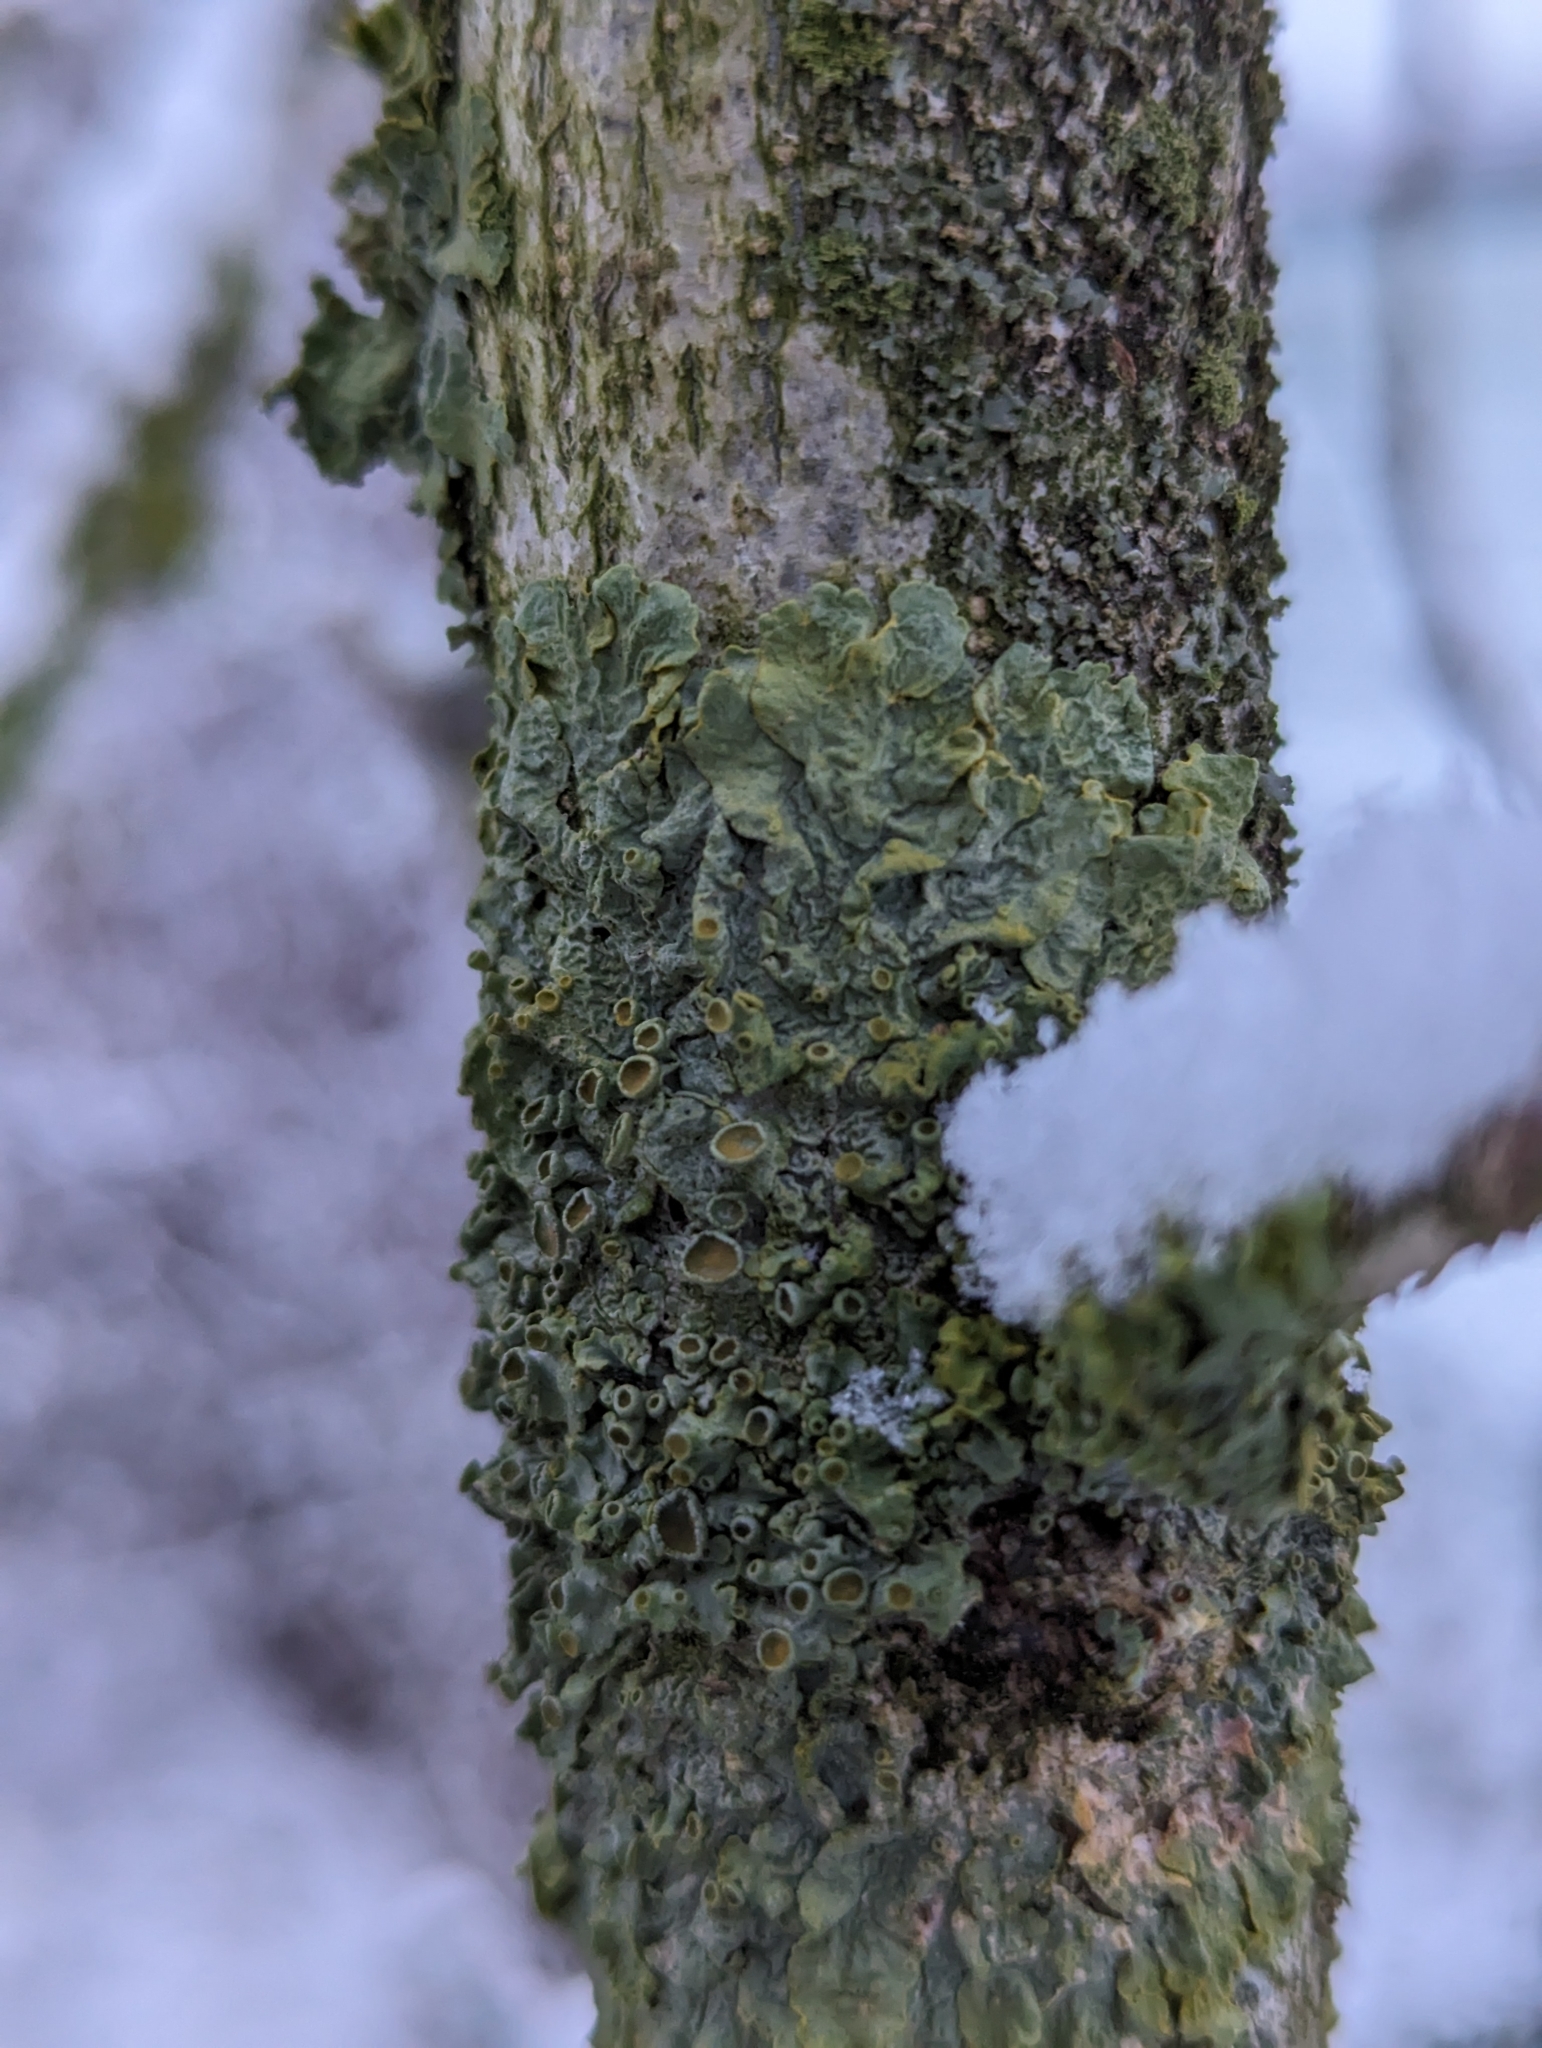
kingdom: Fungi
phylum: Ascomycota
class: Lecanoromycetes
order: Teloschistales
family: Teloschistaceae
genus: Xanthoria
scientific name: Xanthoria parietina
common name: Common orange lichen
